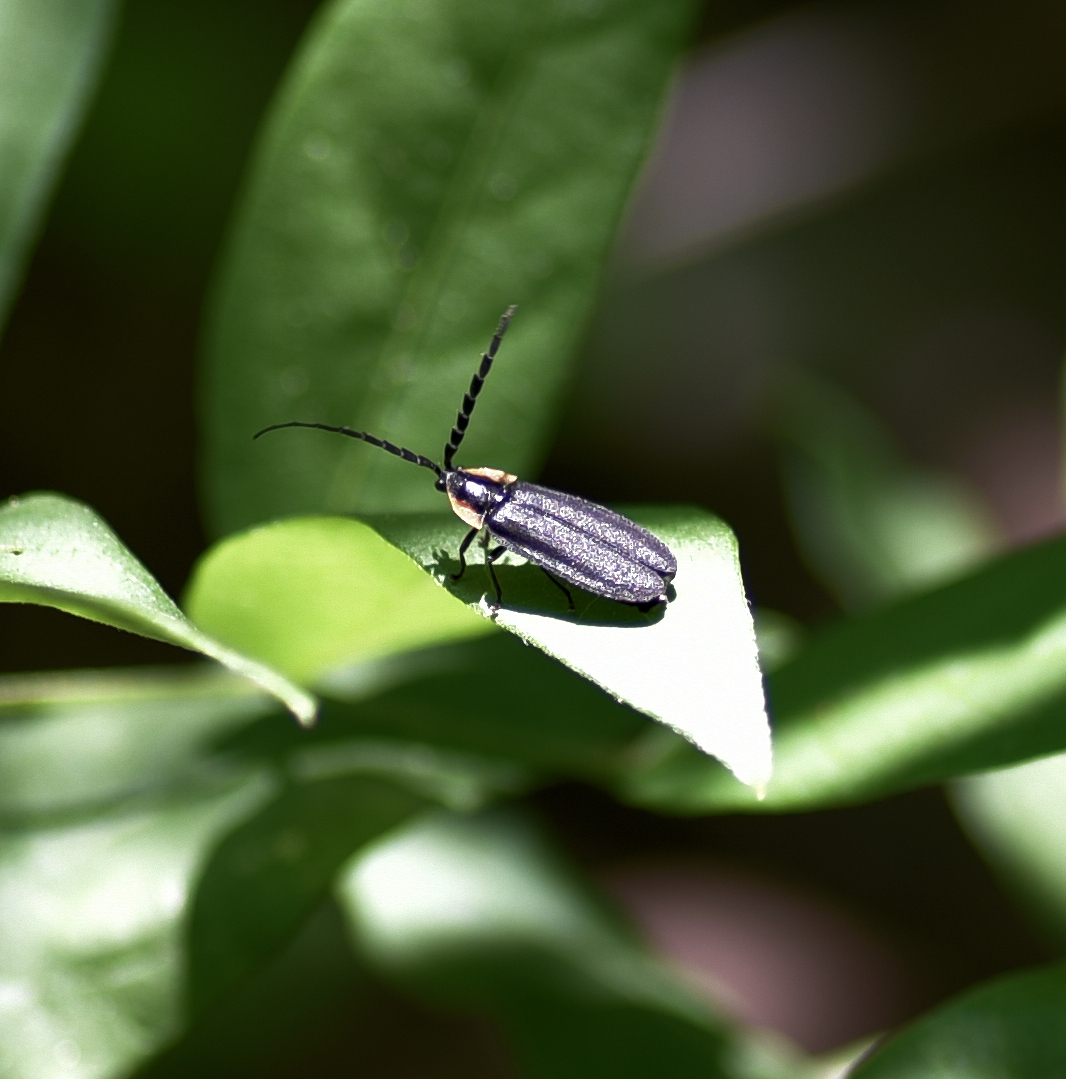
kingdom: Animalia
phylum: Arthropoda
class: Insecta
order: Coleoptera
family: Lampyridae
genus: Lucidota
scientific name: Lucidota atra
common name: Black firefly
